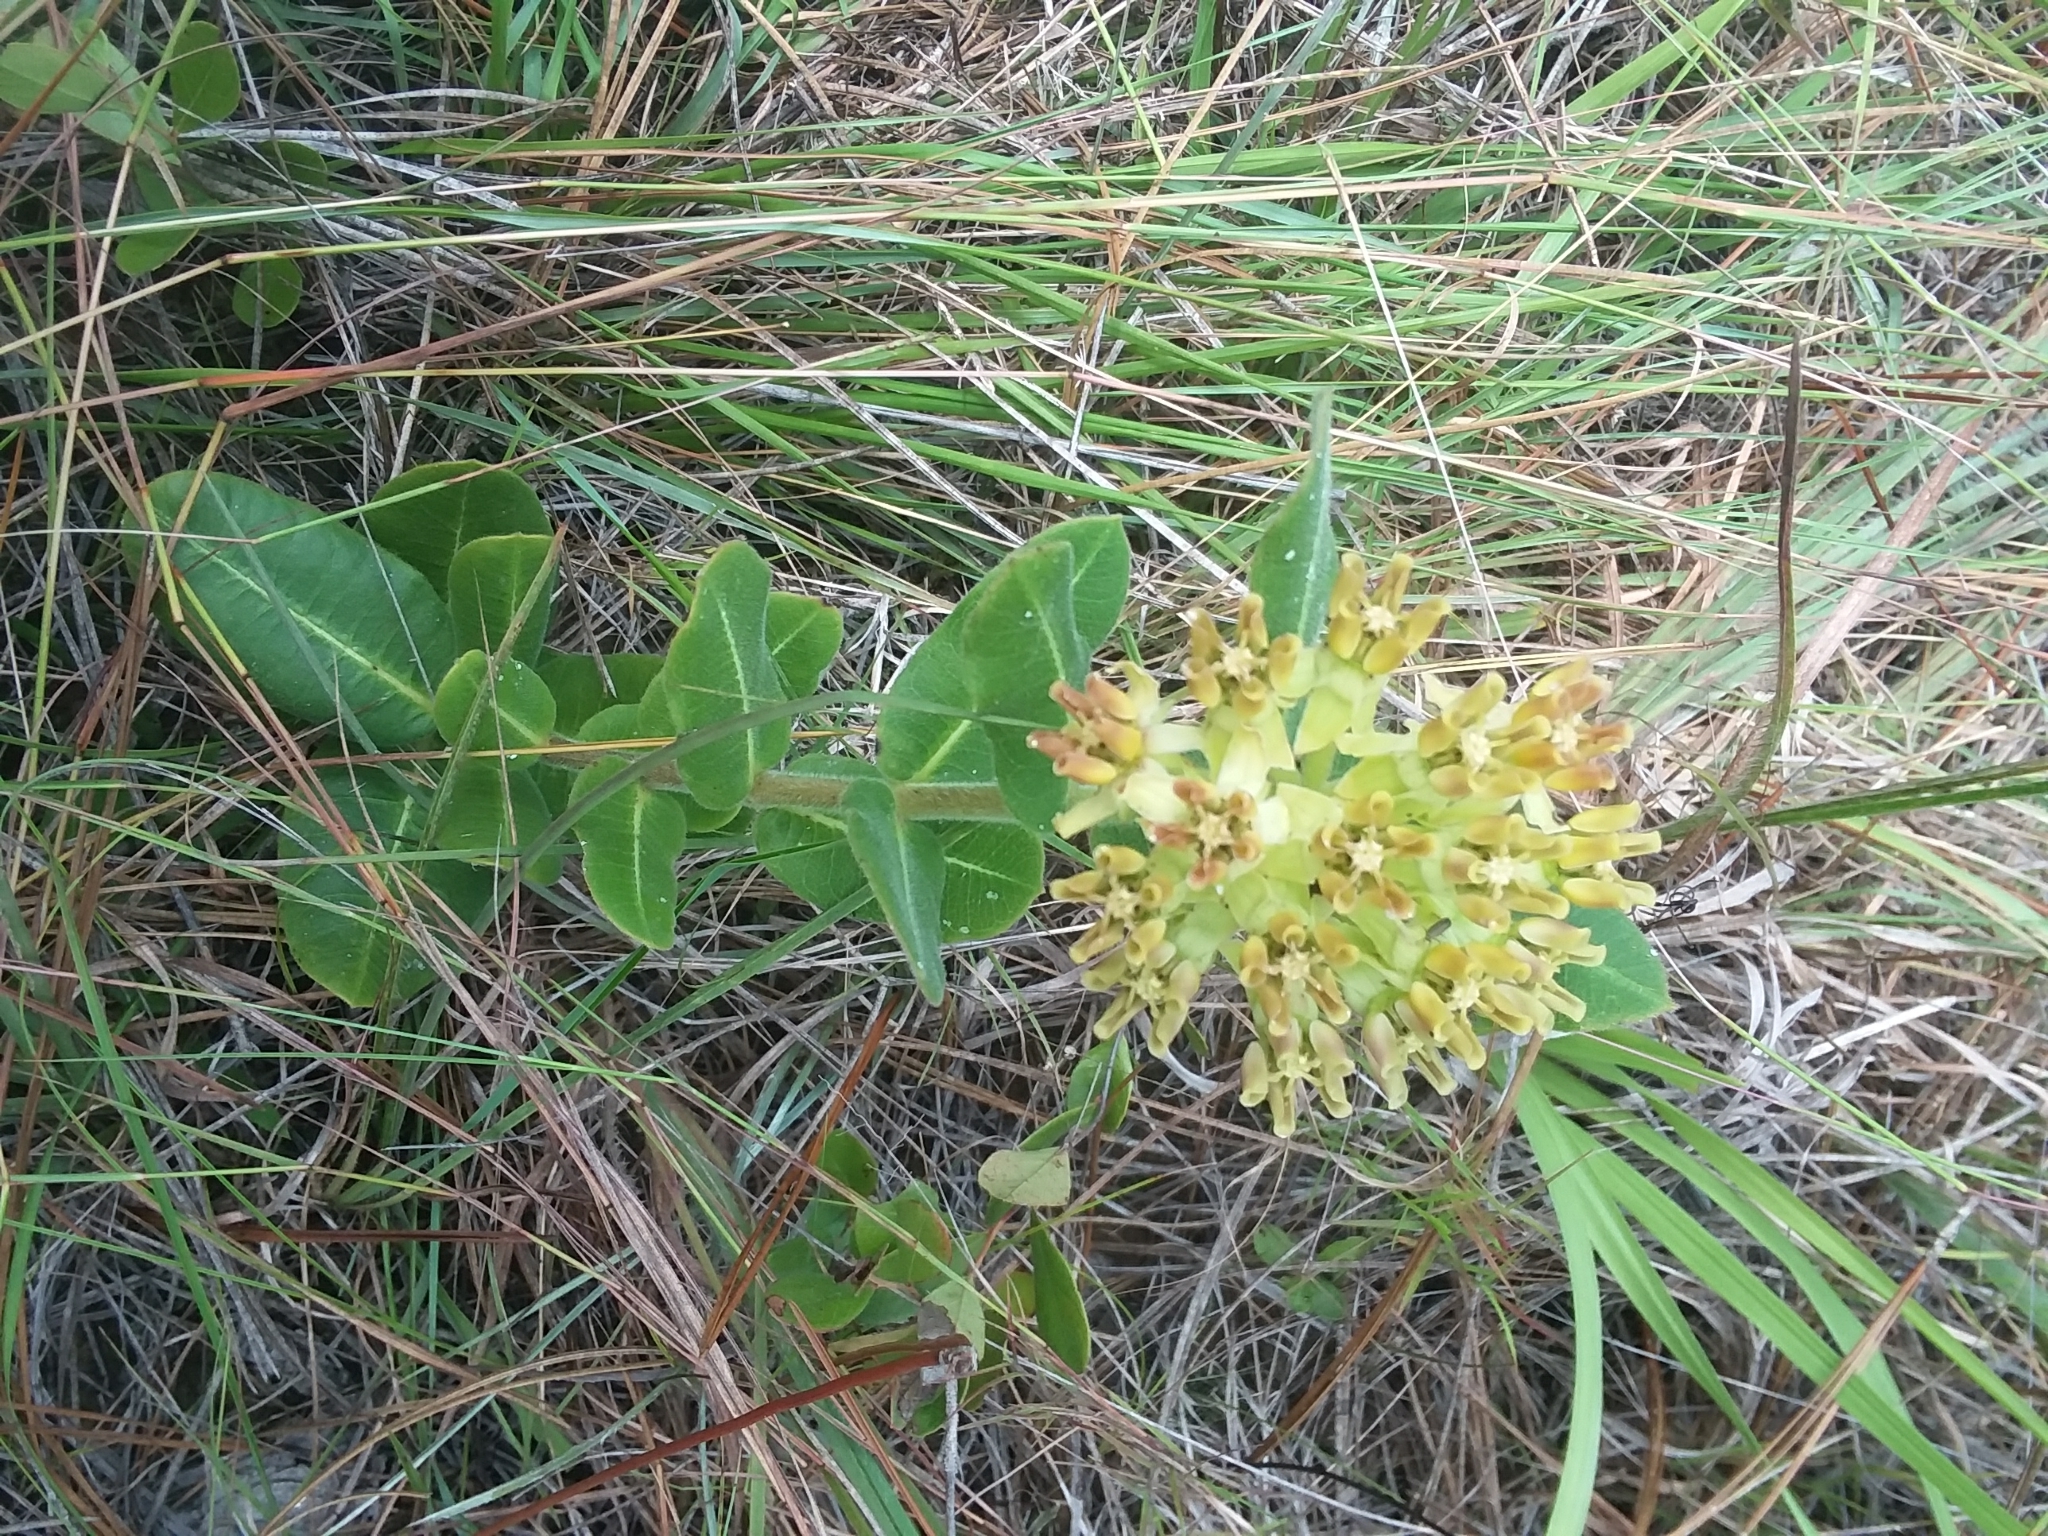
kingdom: Plantae
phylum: Tracheophyta
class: Magnoliopsida
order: Gentianales
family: Apocynaceae
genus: Asclepias
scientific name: Asclepias obovata
